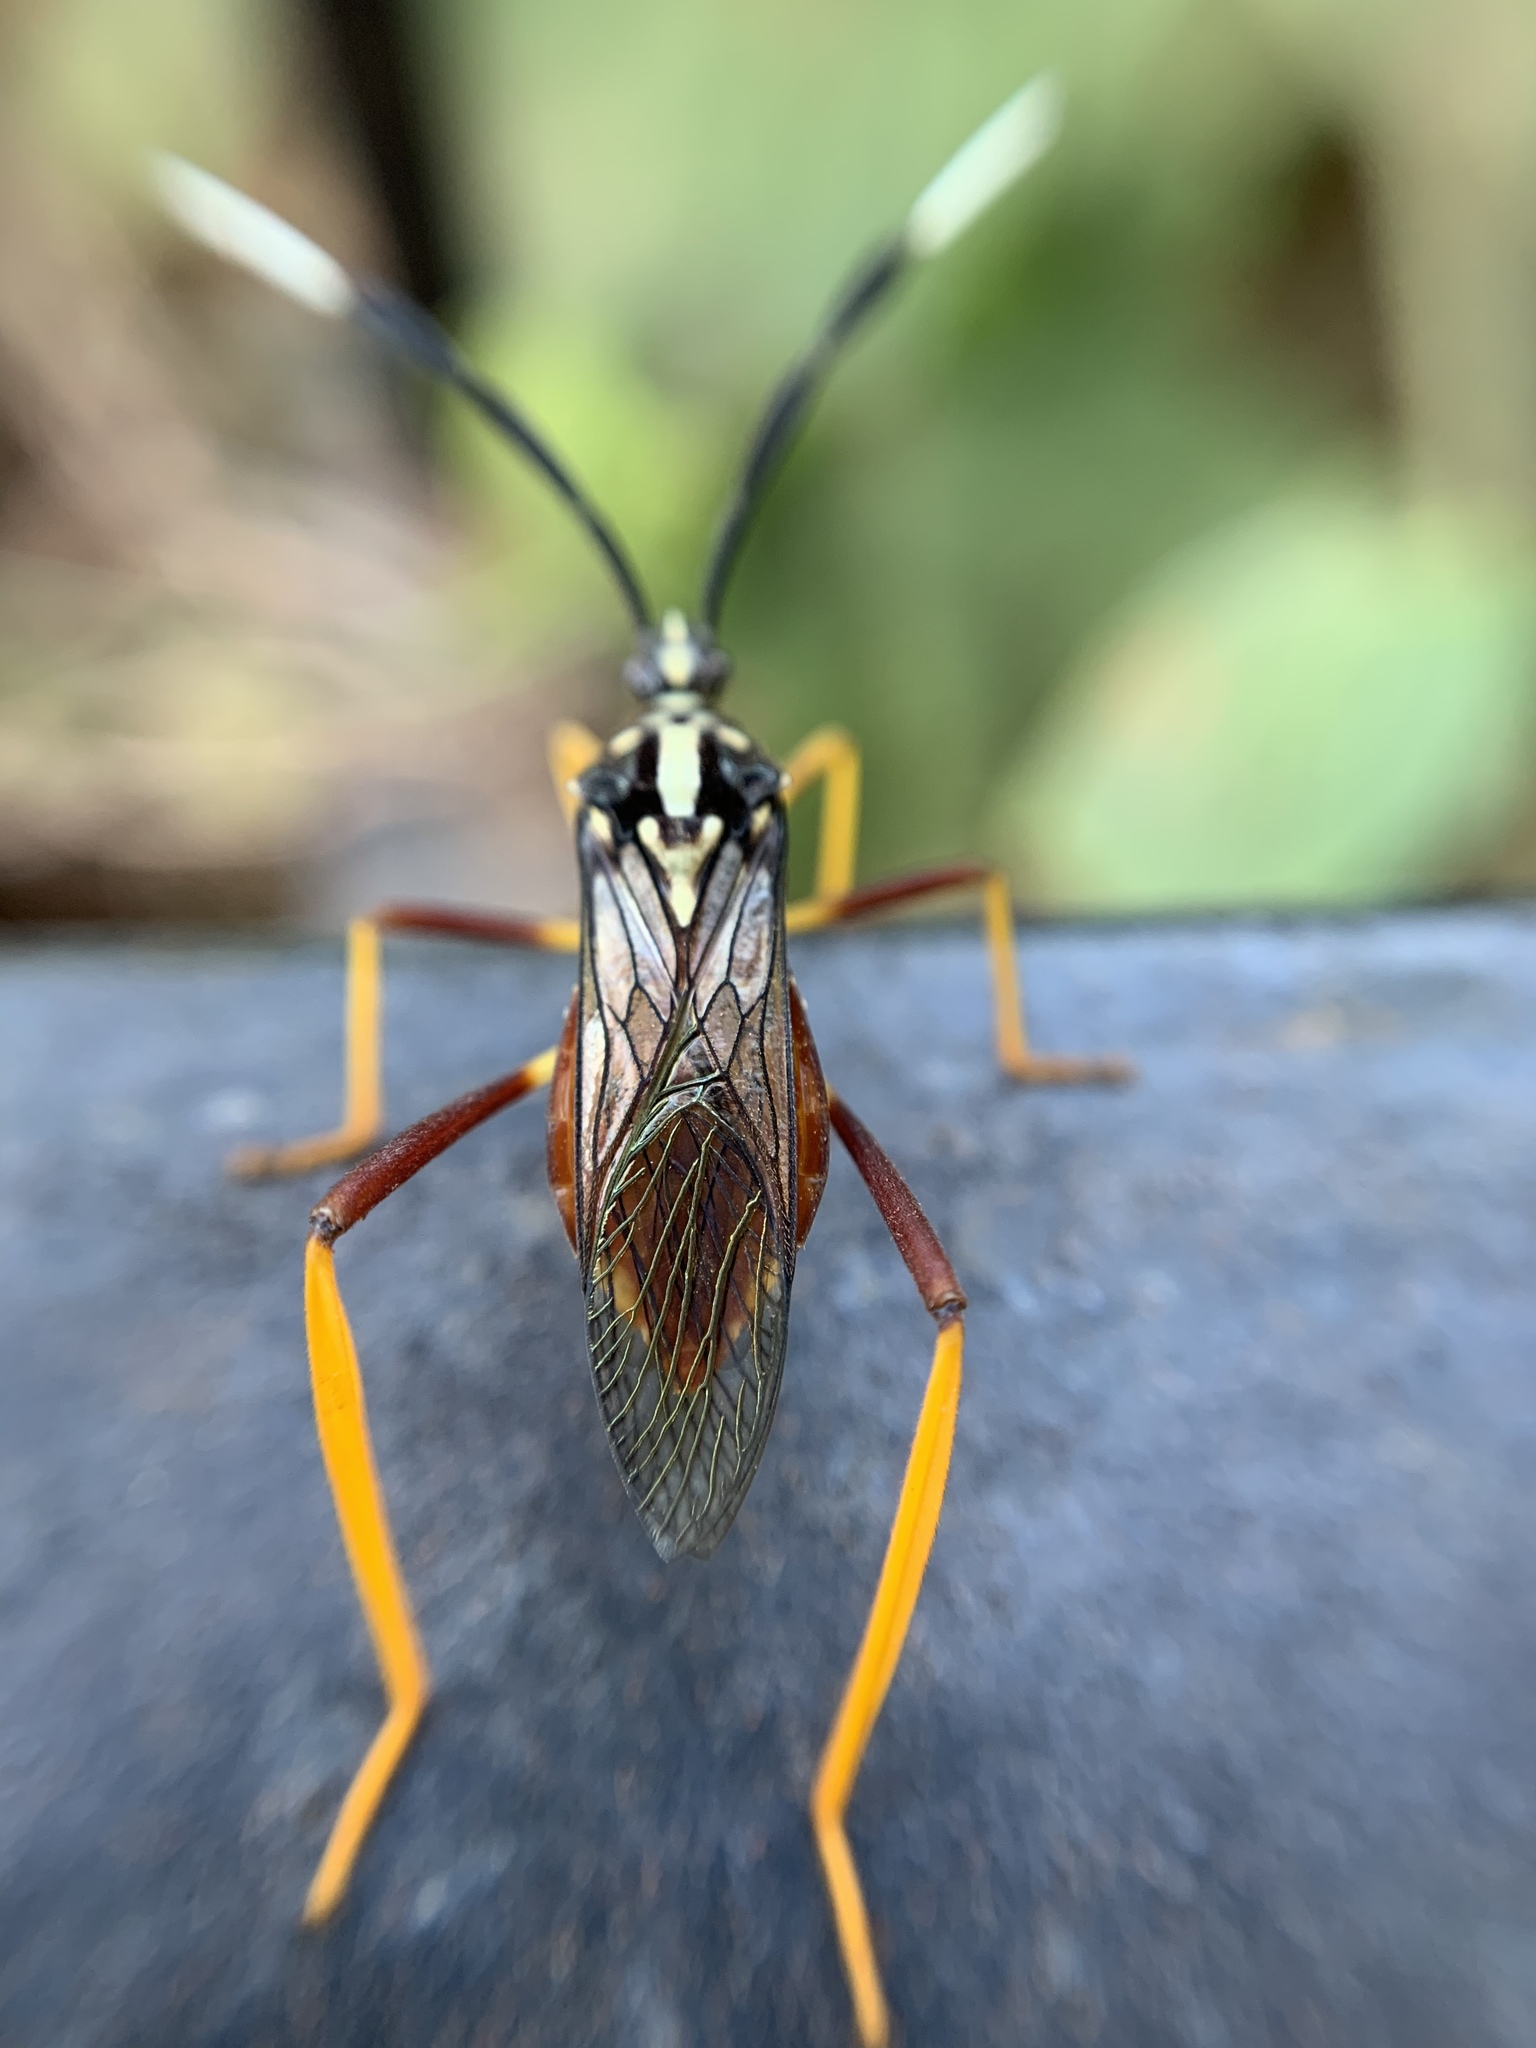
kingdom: Animalia
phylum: Arthropoda
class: Insecta
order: Hemiptera
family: Coreidae
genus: Holhymenia
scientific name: Holhymenia histrio
